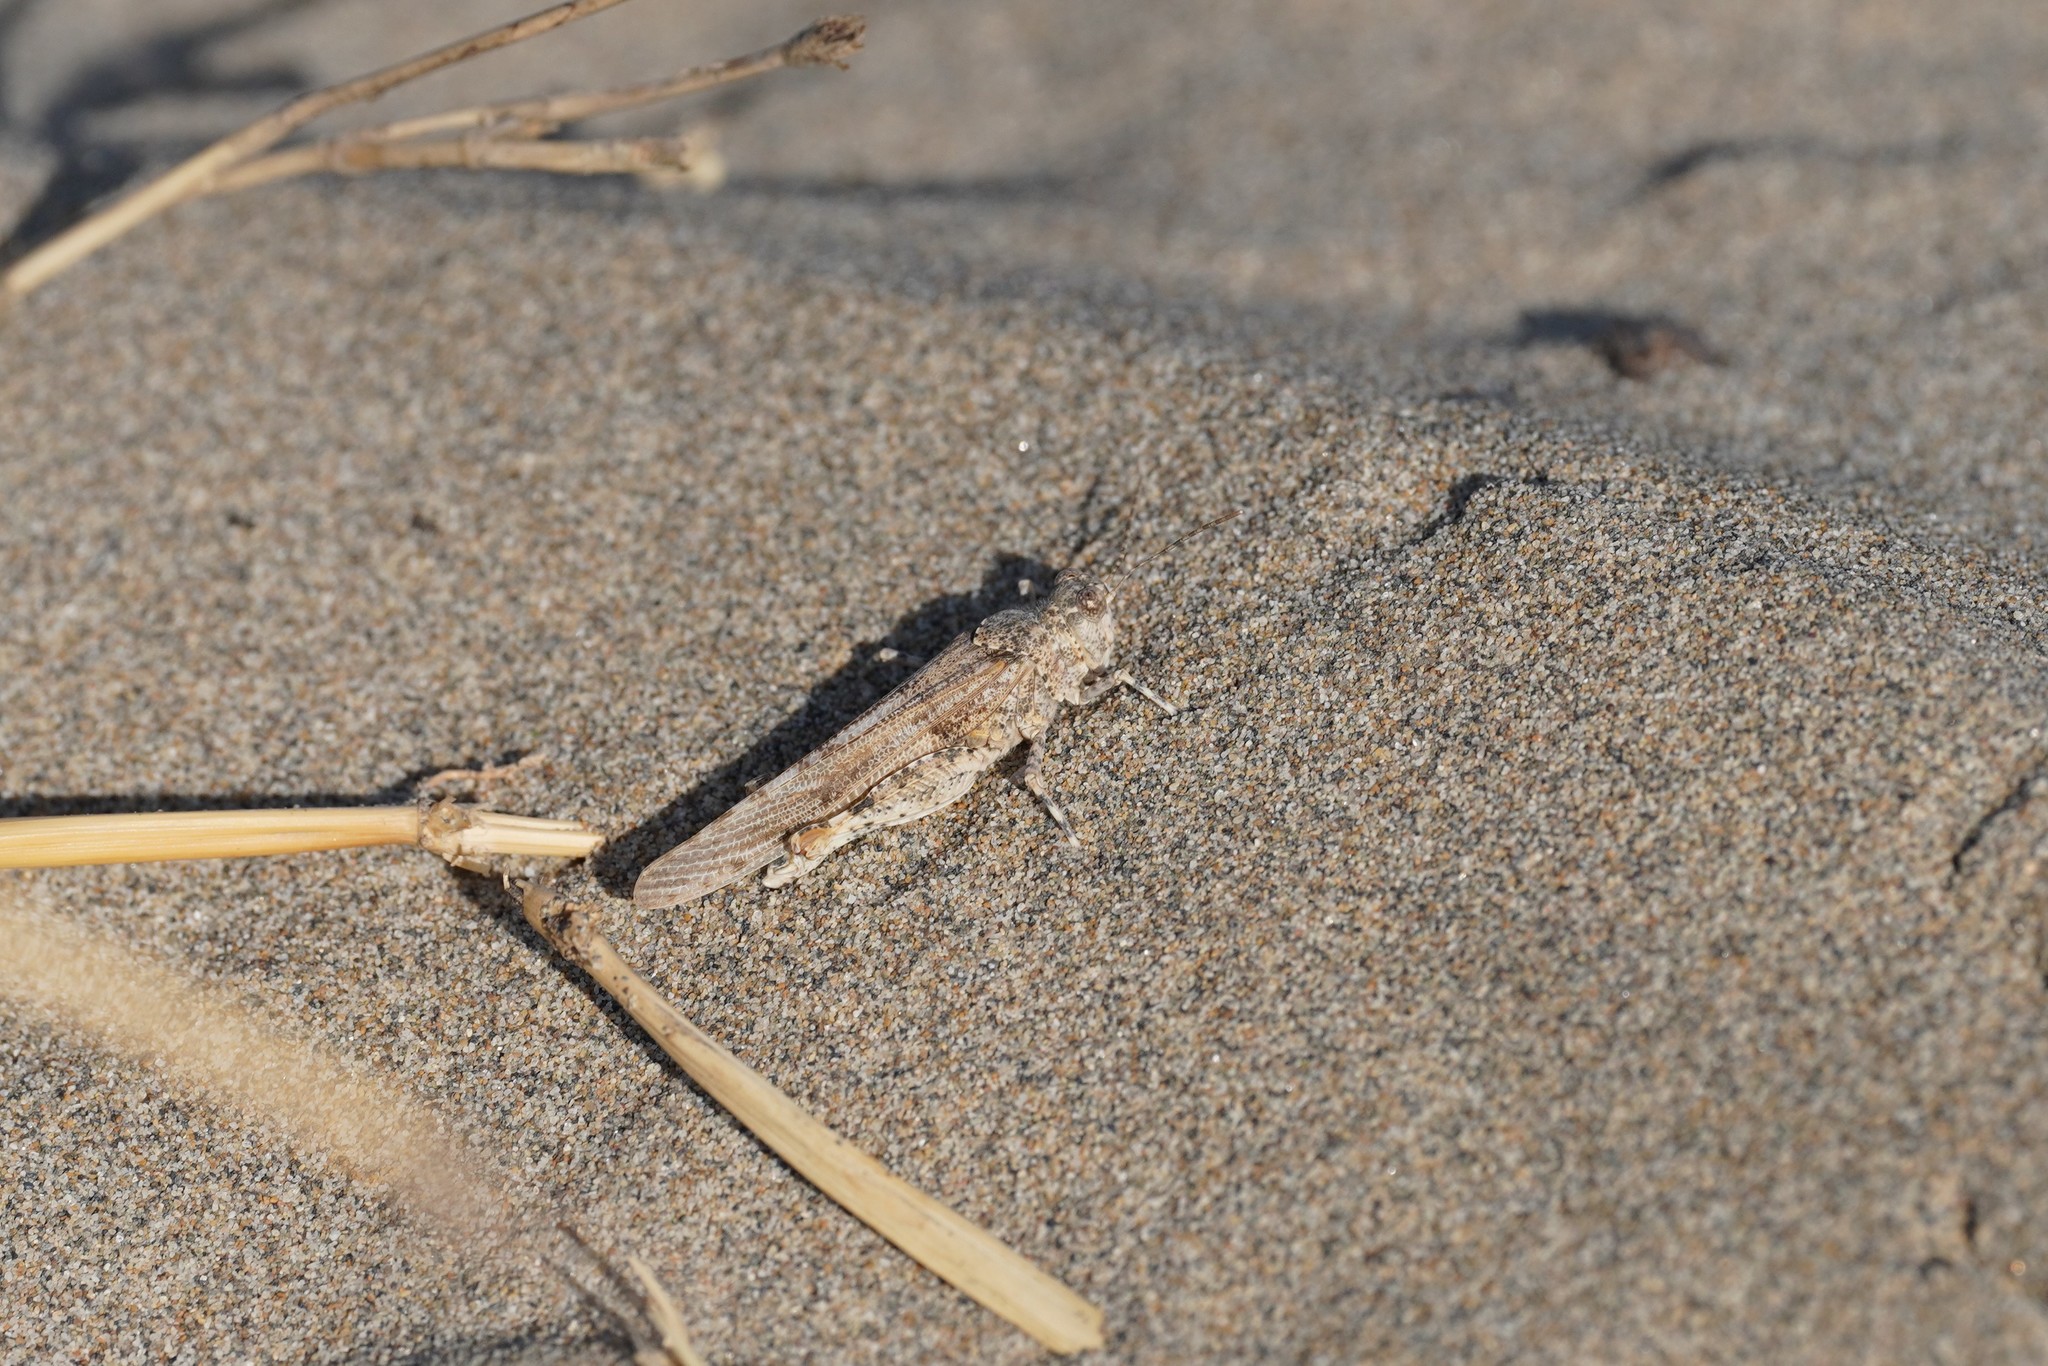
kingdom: Animalia
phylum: Arthropoda
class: Insecta
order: Orthoptera
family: Acrididae
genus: Sphingonotus
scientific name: Sphingonotus caerulans
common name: Blue-winged locust
